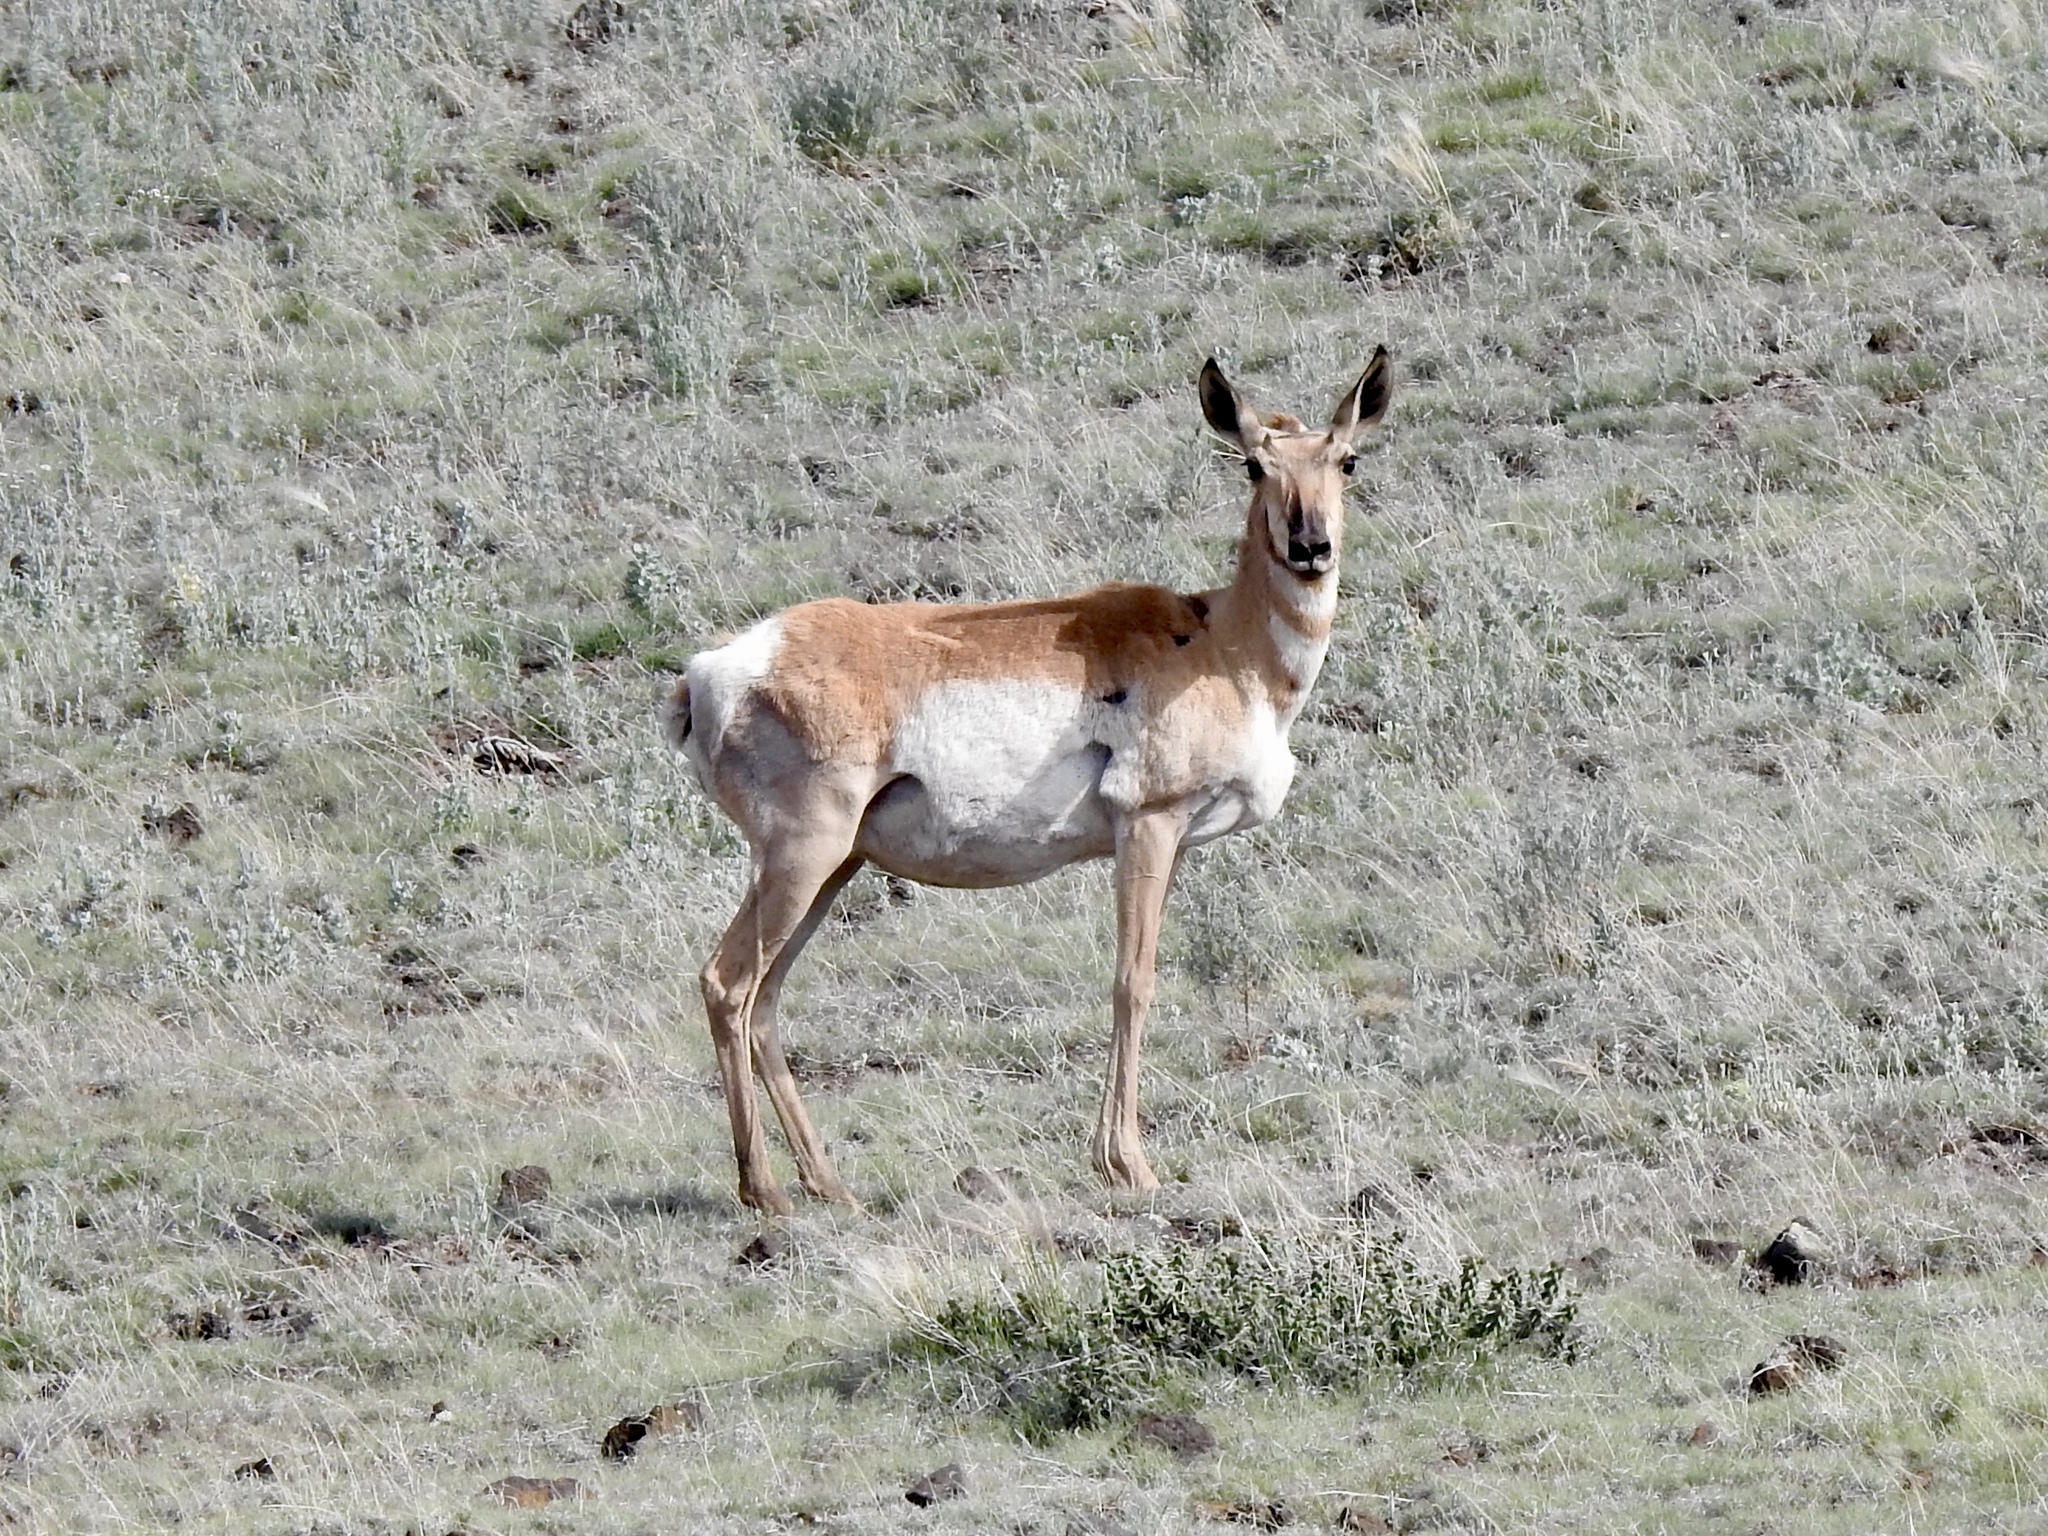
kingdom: Animalia
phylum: Chordata
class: Mammalia
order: Artiodactyla
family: Antilocapridae
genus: Antilocapra
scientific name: Antilocapra americana
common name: Pronghorn
